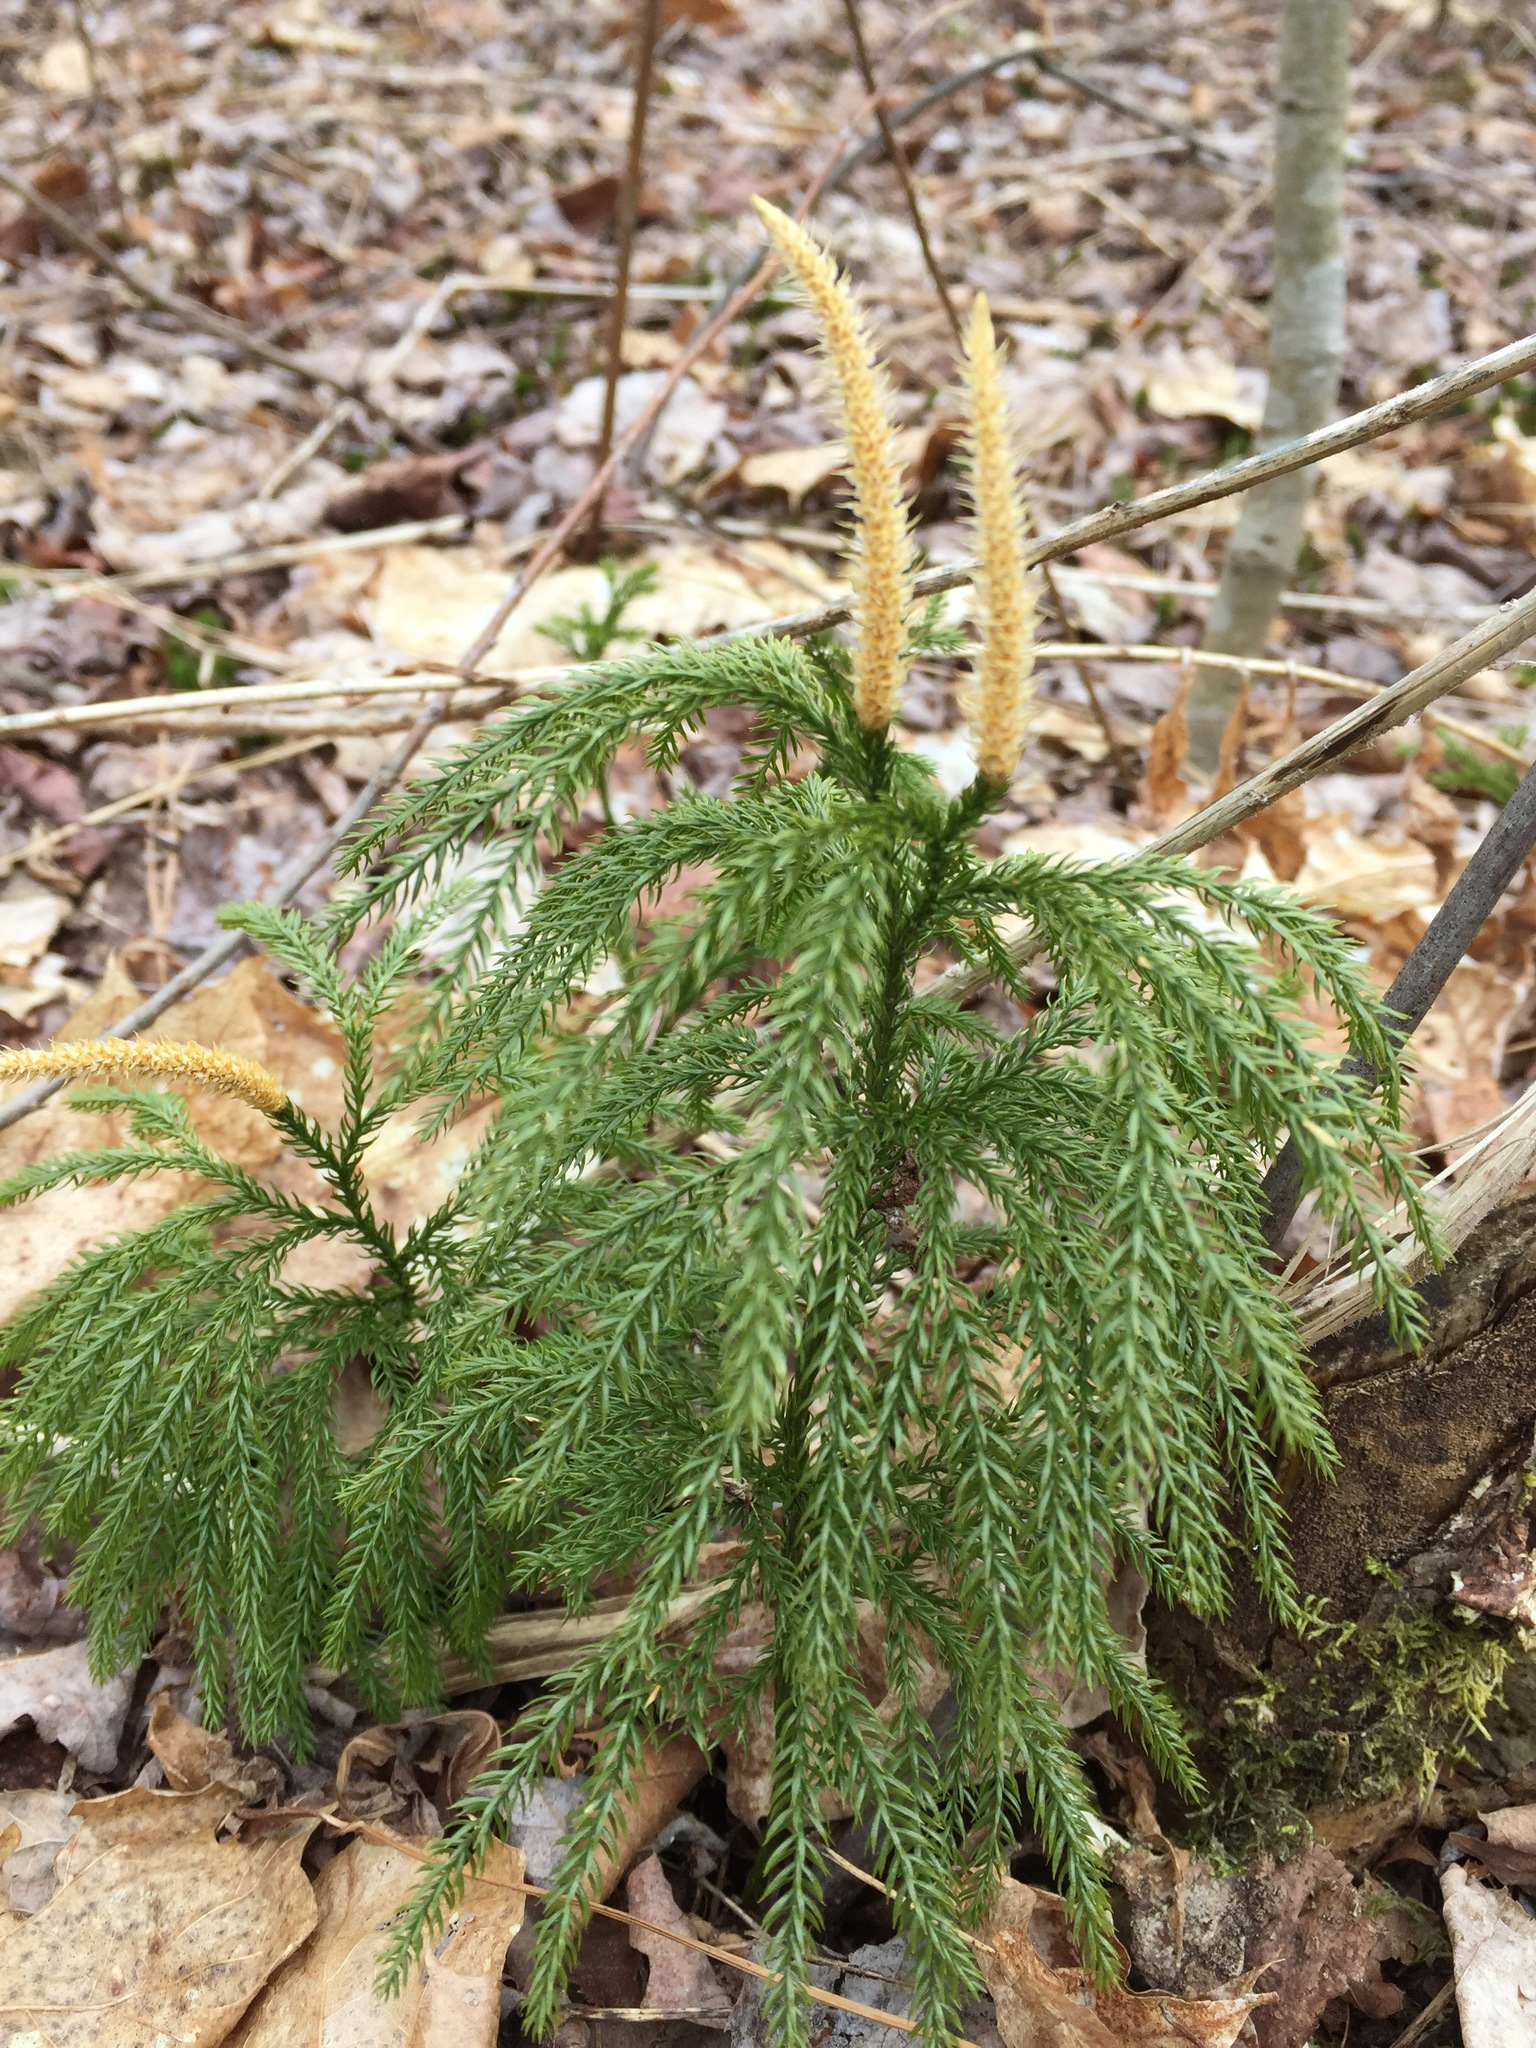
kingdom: Plantae
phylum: Tracheophyta
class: Lycopodiopsida
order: Lycopodiales
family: Lycopodiaceae
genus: Dendrolycopodium
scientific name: Dendrolycopodium obscurum
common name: Common ground-pine
